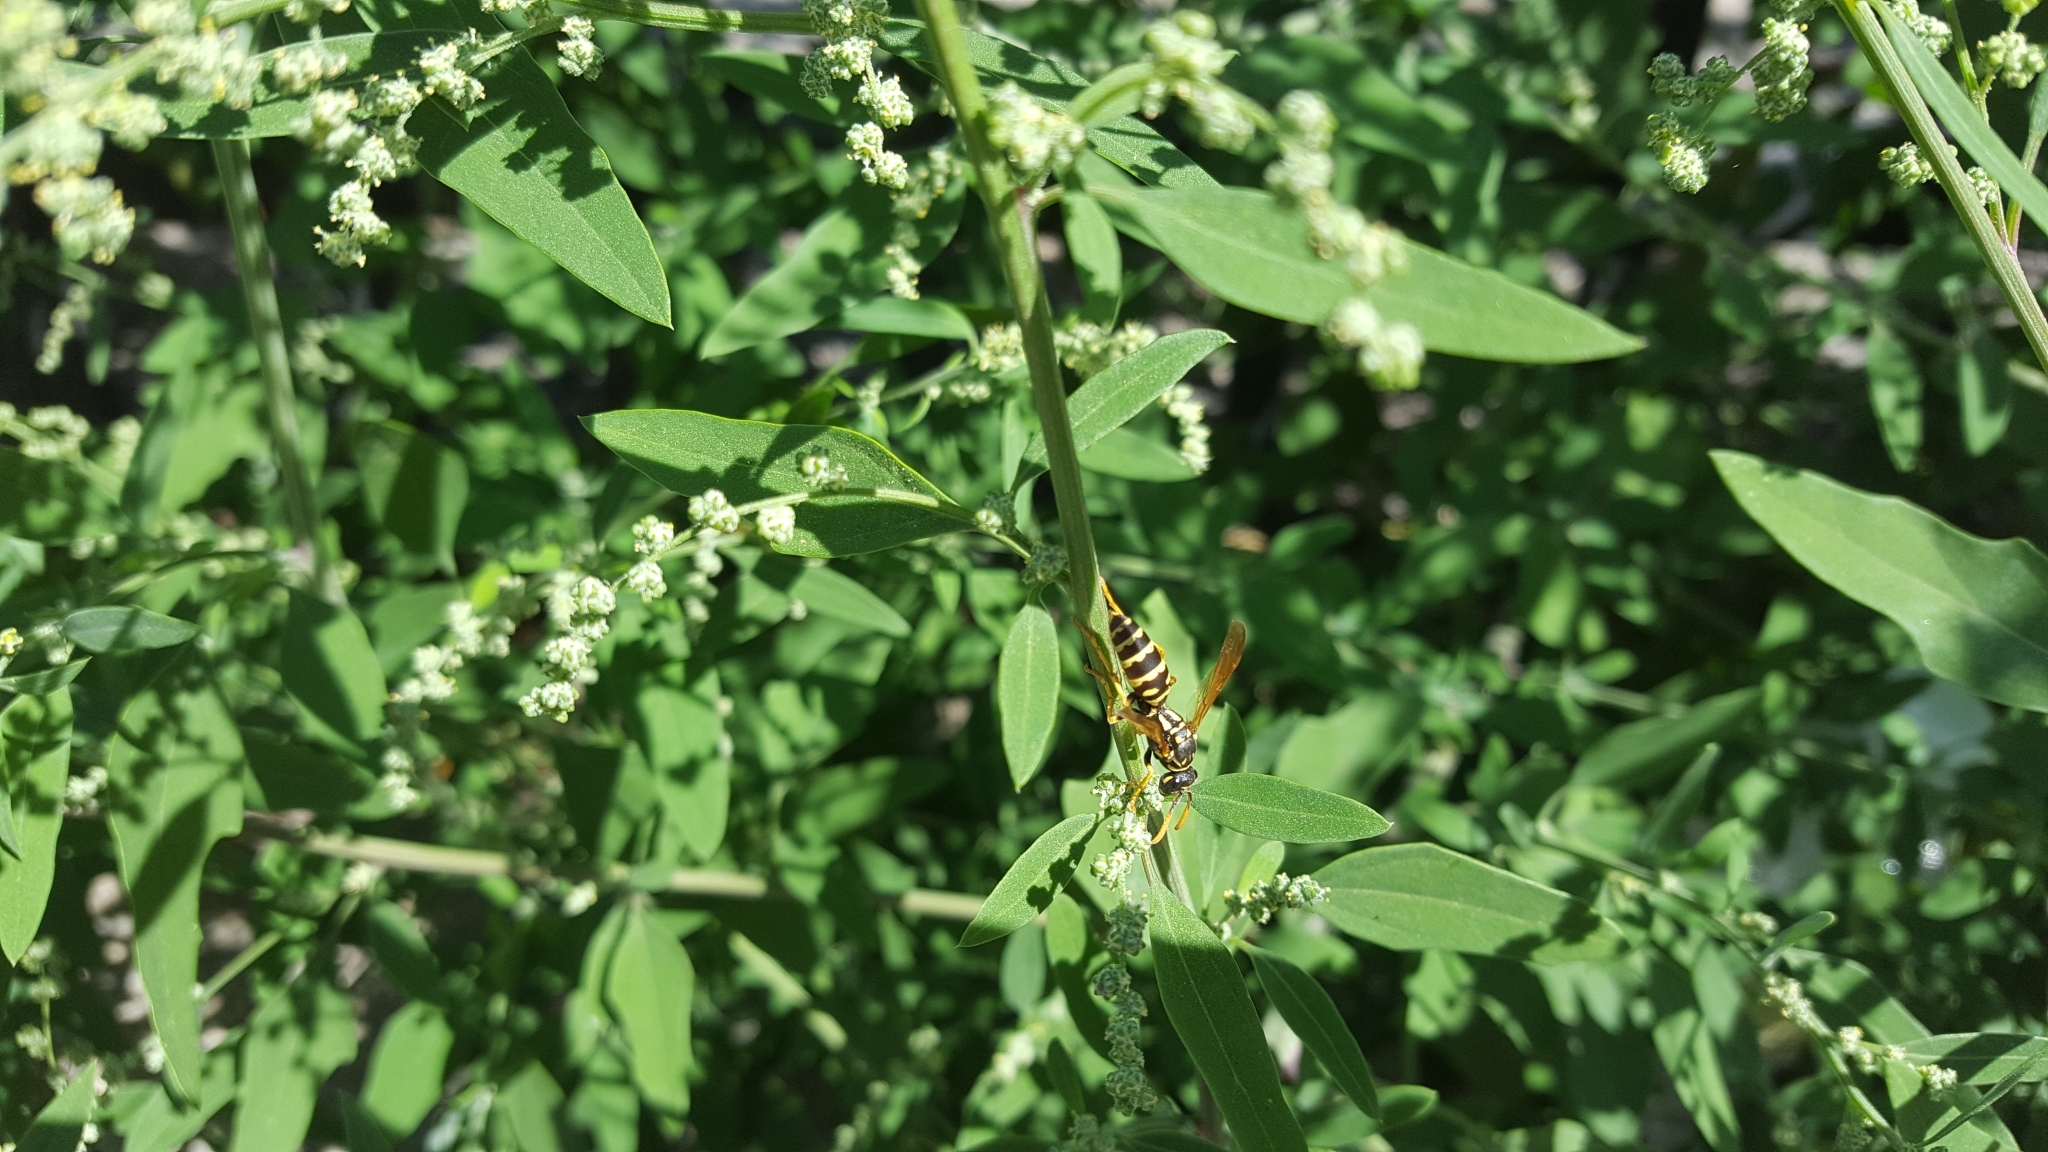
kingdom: Animalia
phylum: Arthropoda
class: Insecta
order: Hymenoptera
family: Eumenidae
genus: Polistes
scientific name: Polistes dominula
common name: Paper wasp
